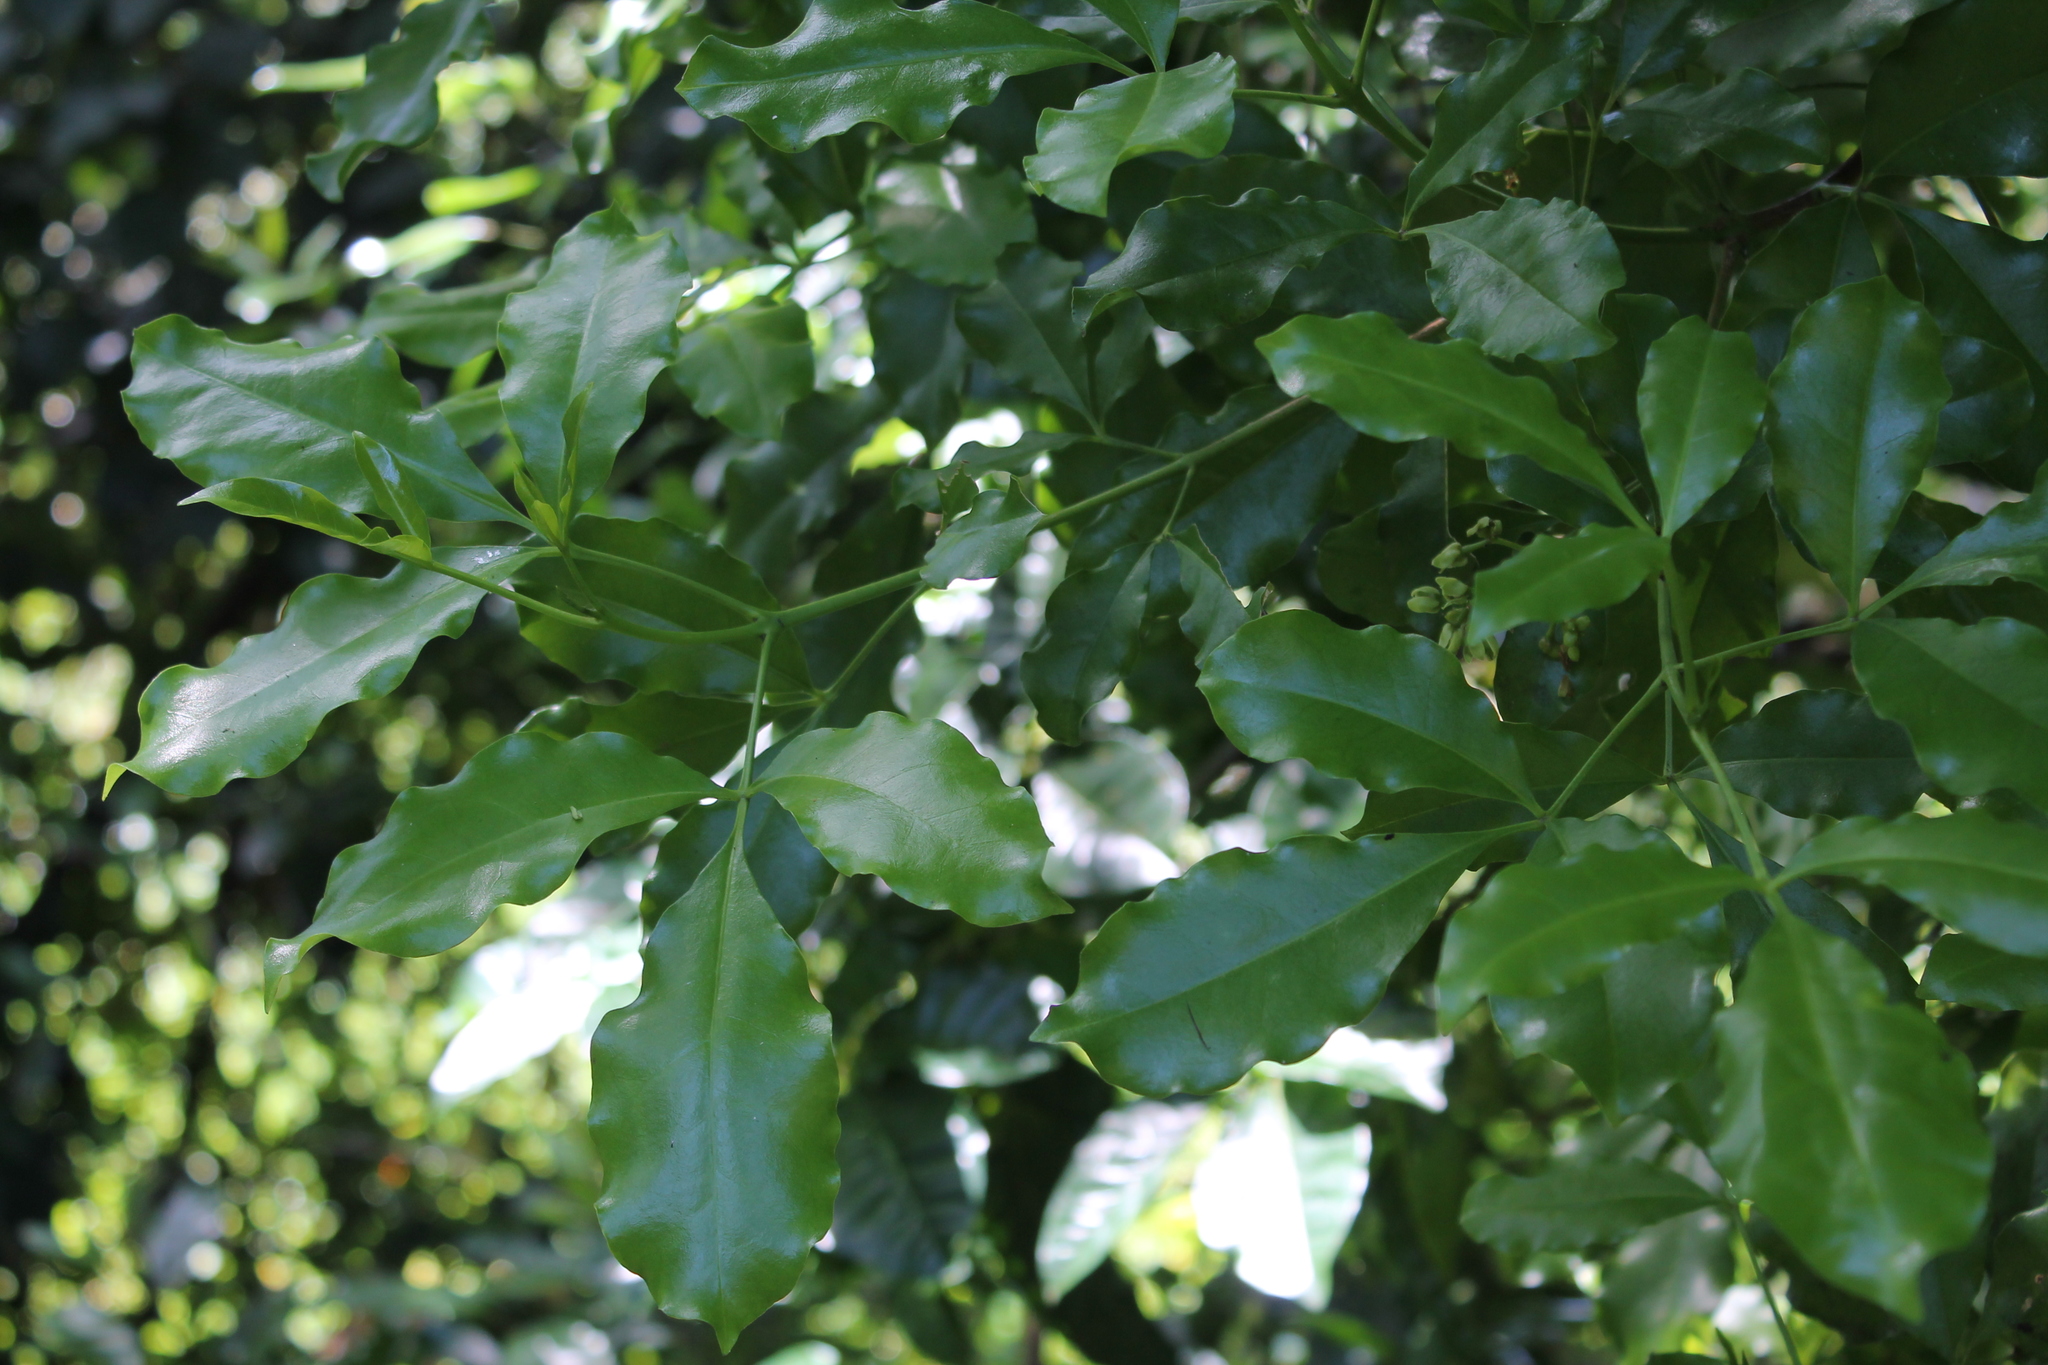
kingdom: Plantae
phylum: Tracheophyta
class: Magnoliopsida
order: Sapindales
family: Rutaceae
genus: Melicope
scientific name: Melicope ternata
